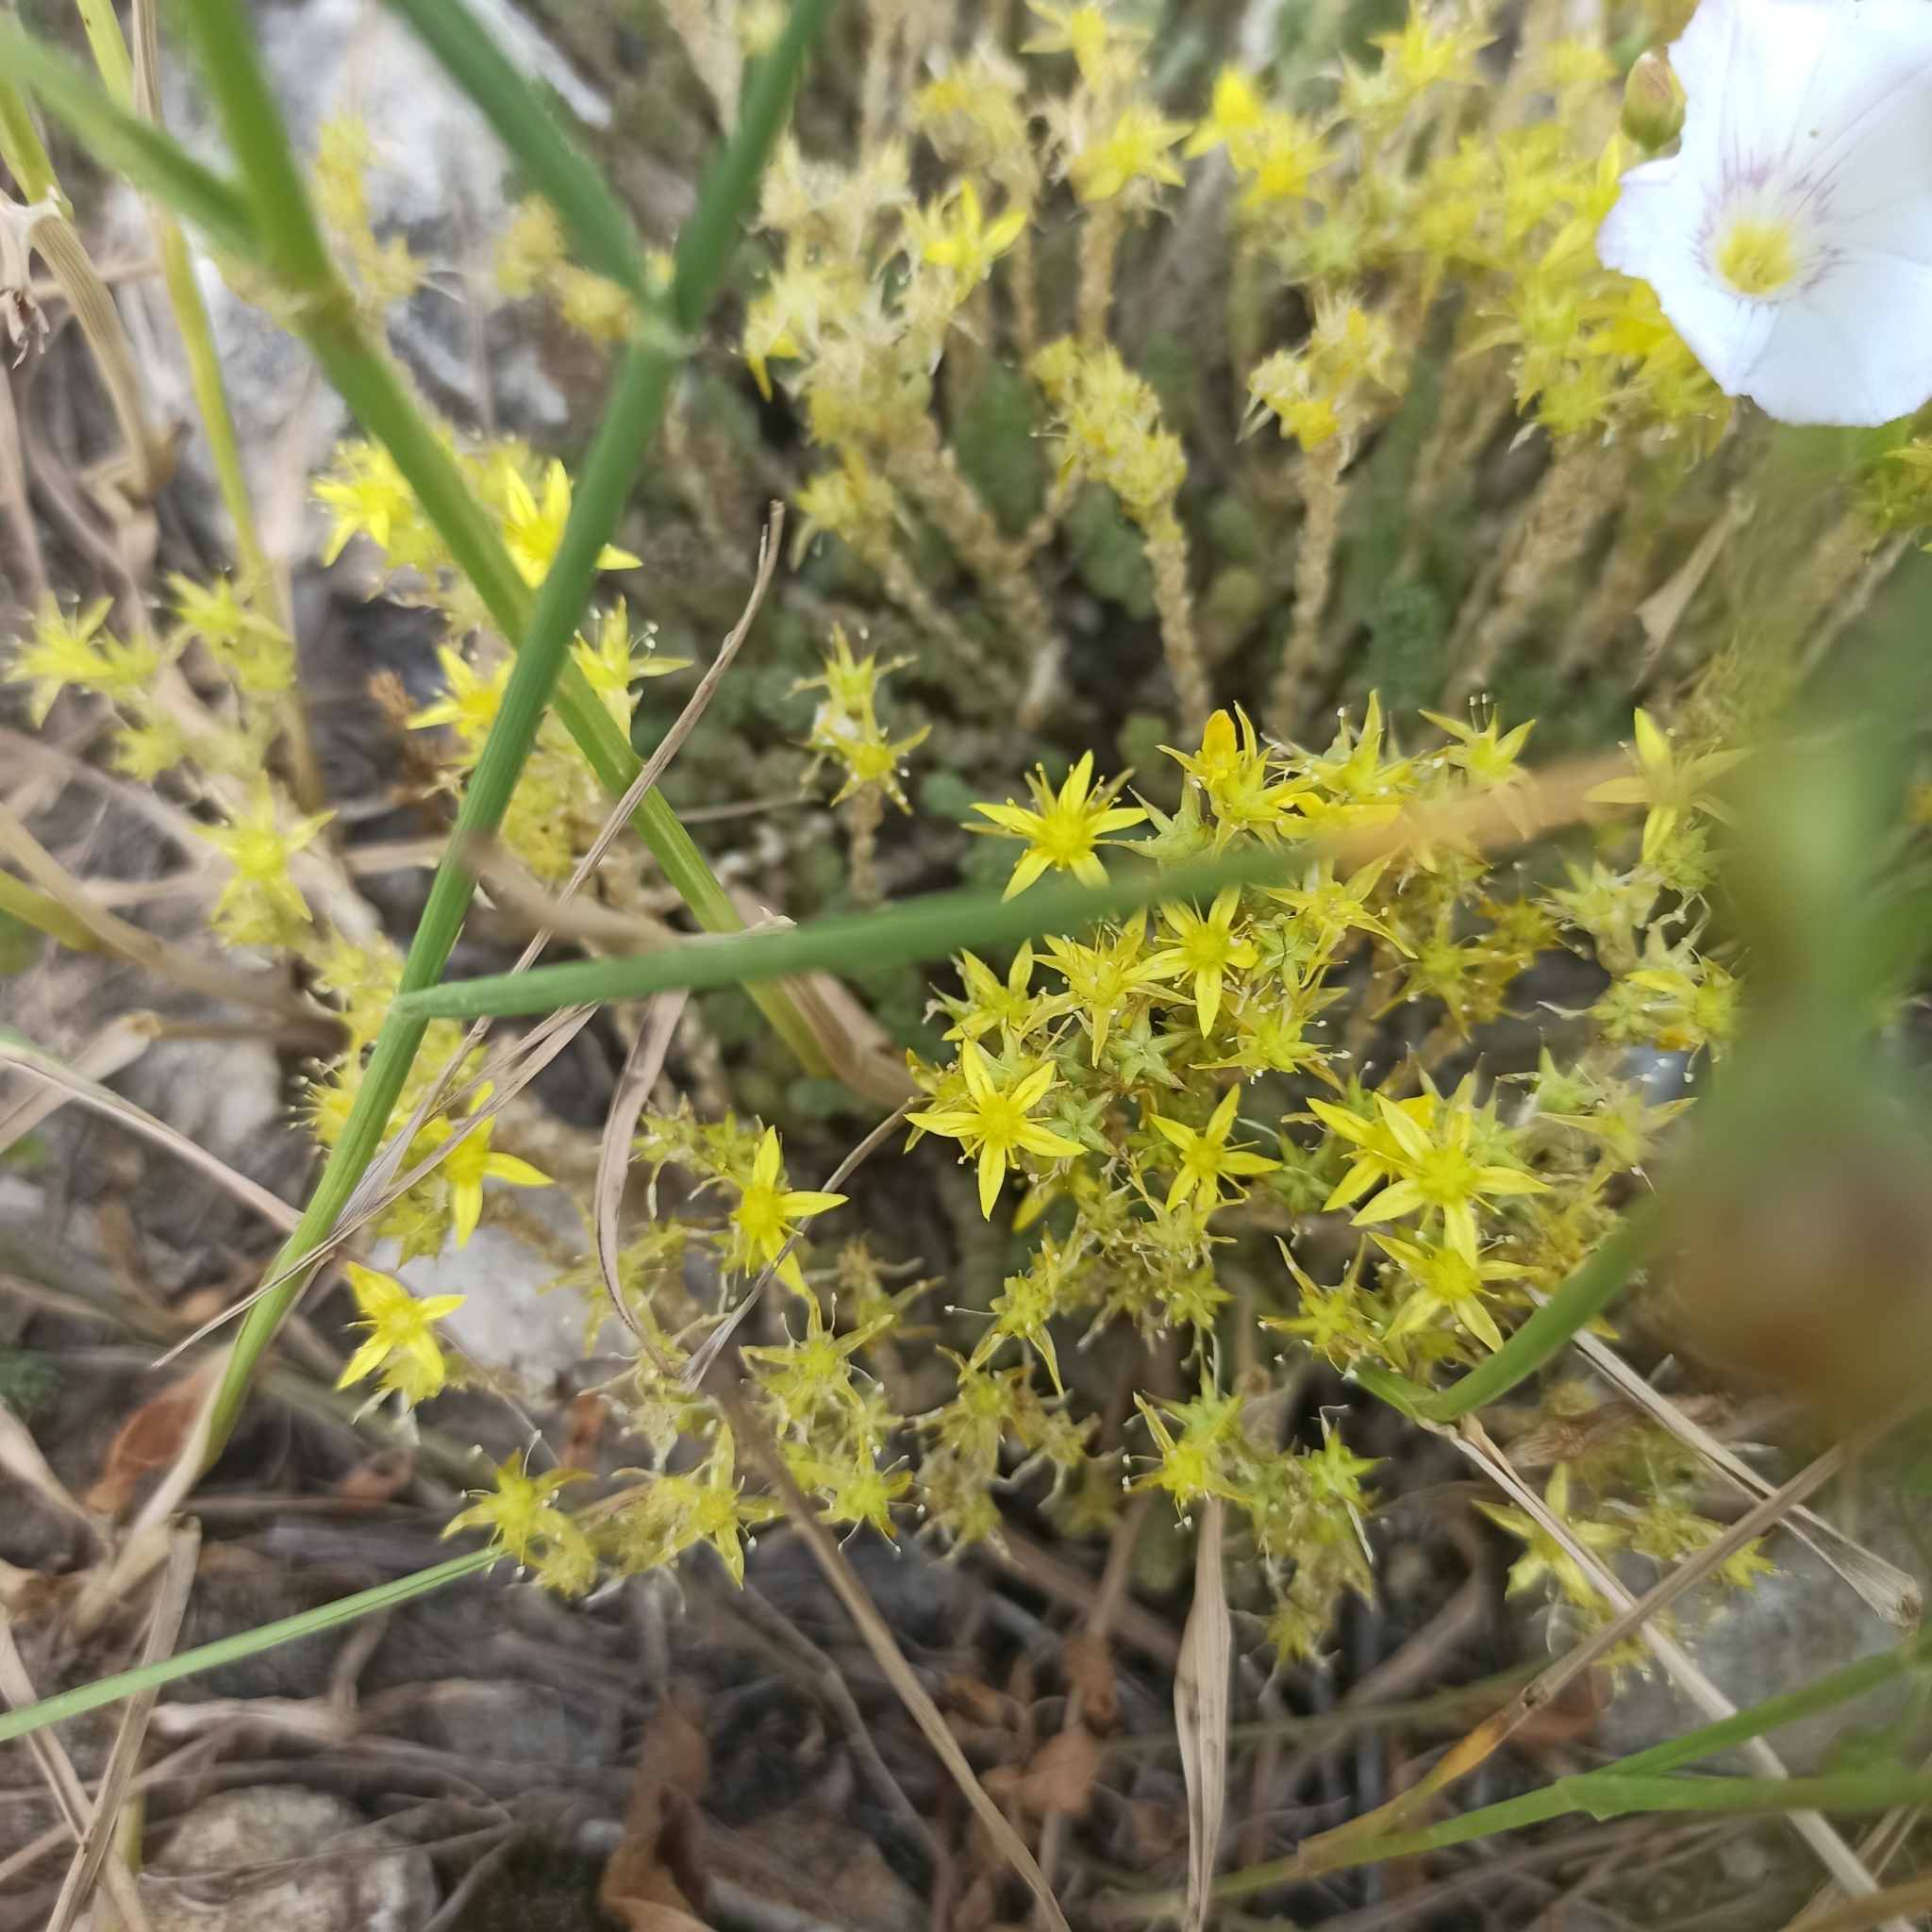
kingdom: Plantae
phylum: Tracheophyta
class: Magnoliopsida
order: Saxifragales
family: Crassulaceae
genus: Sedum
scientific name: Sedum acre
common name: Biting stonecrop
